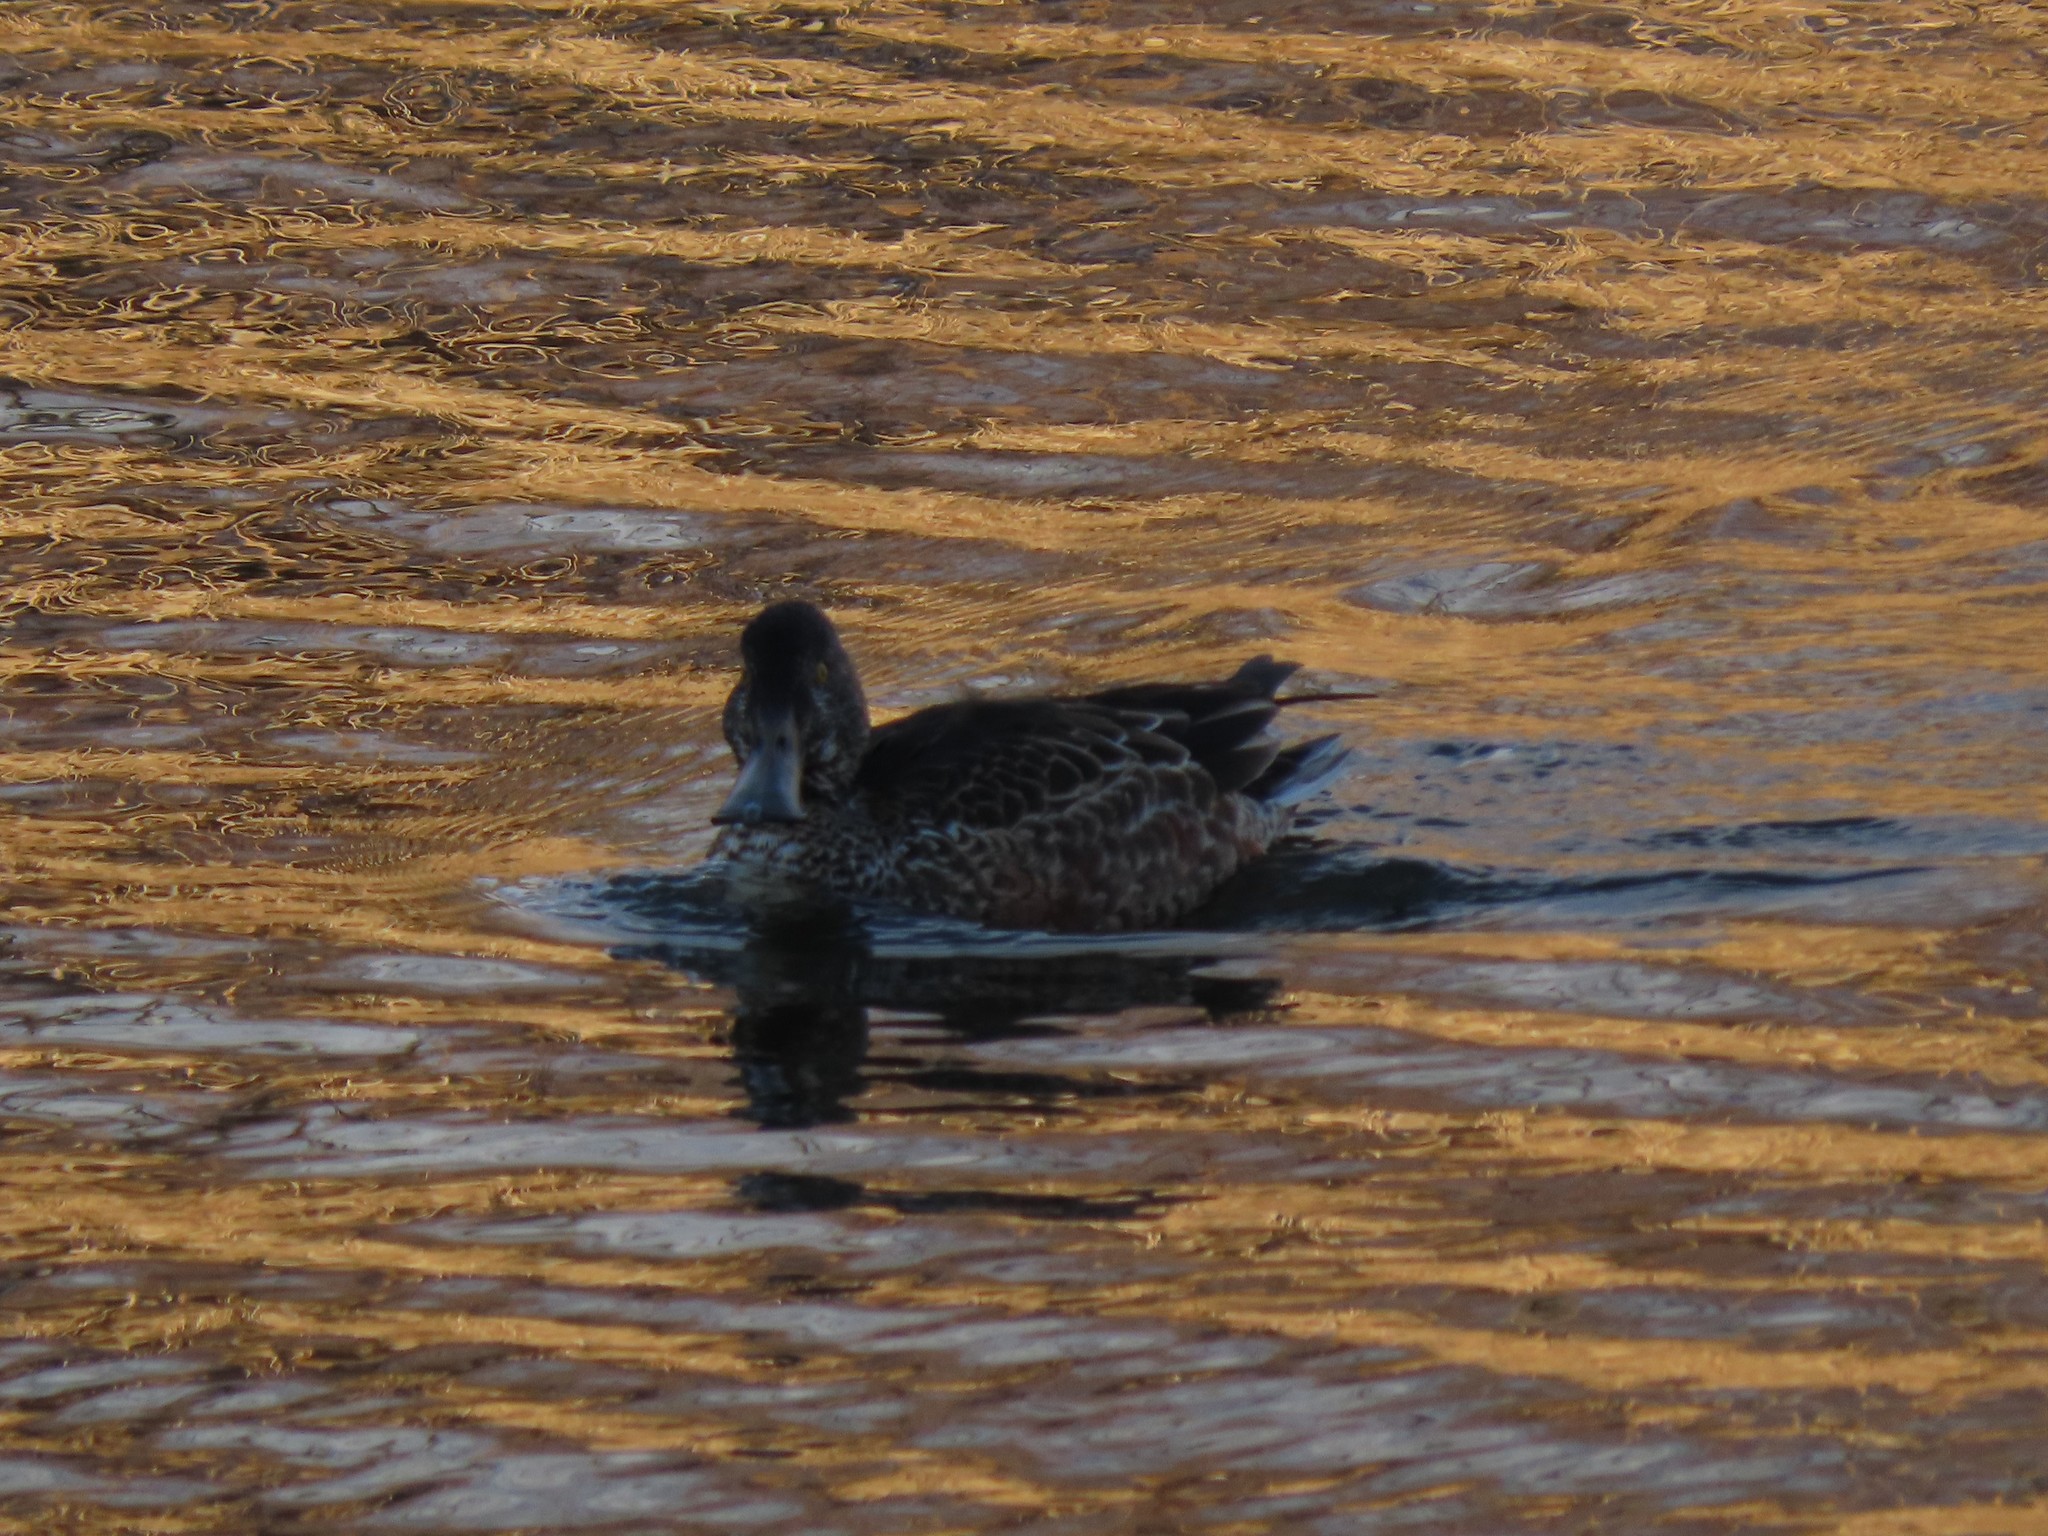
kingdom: Animalia
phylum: Chordata
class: Aves
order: Anseriformes
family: Anatidae
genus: Spatula
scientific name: Spatula clypeata
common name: Northern shoveler
